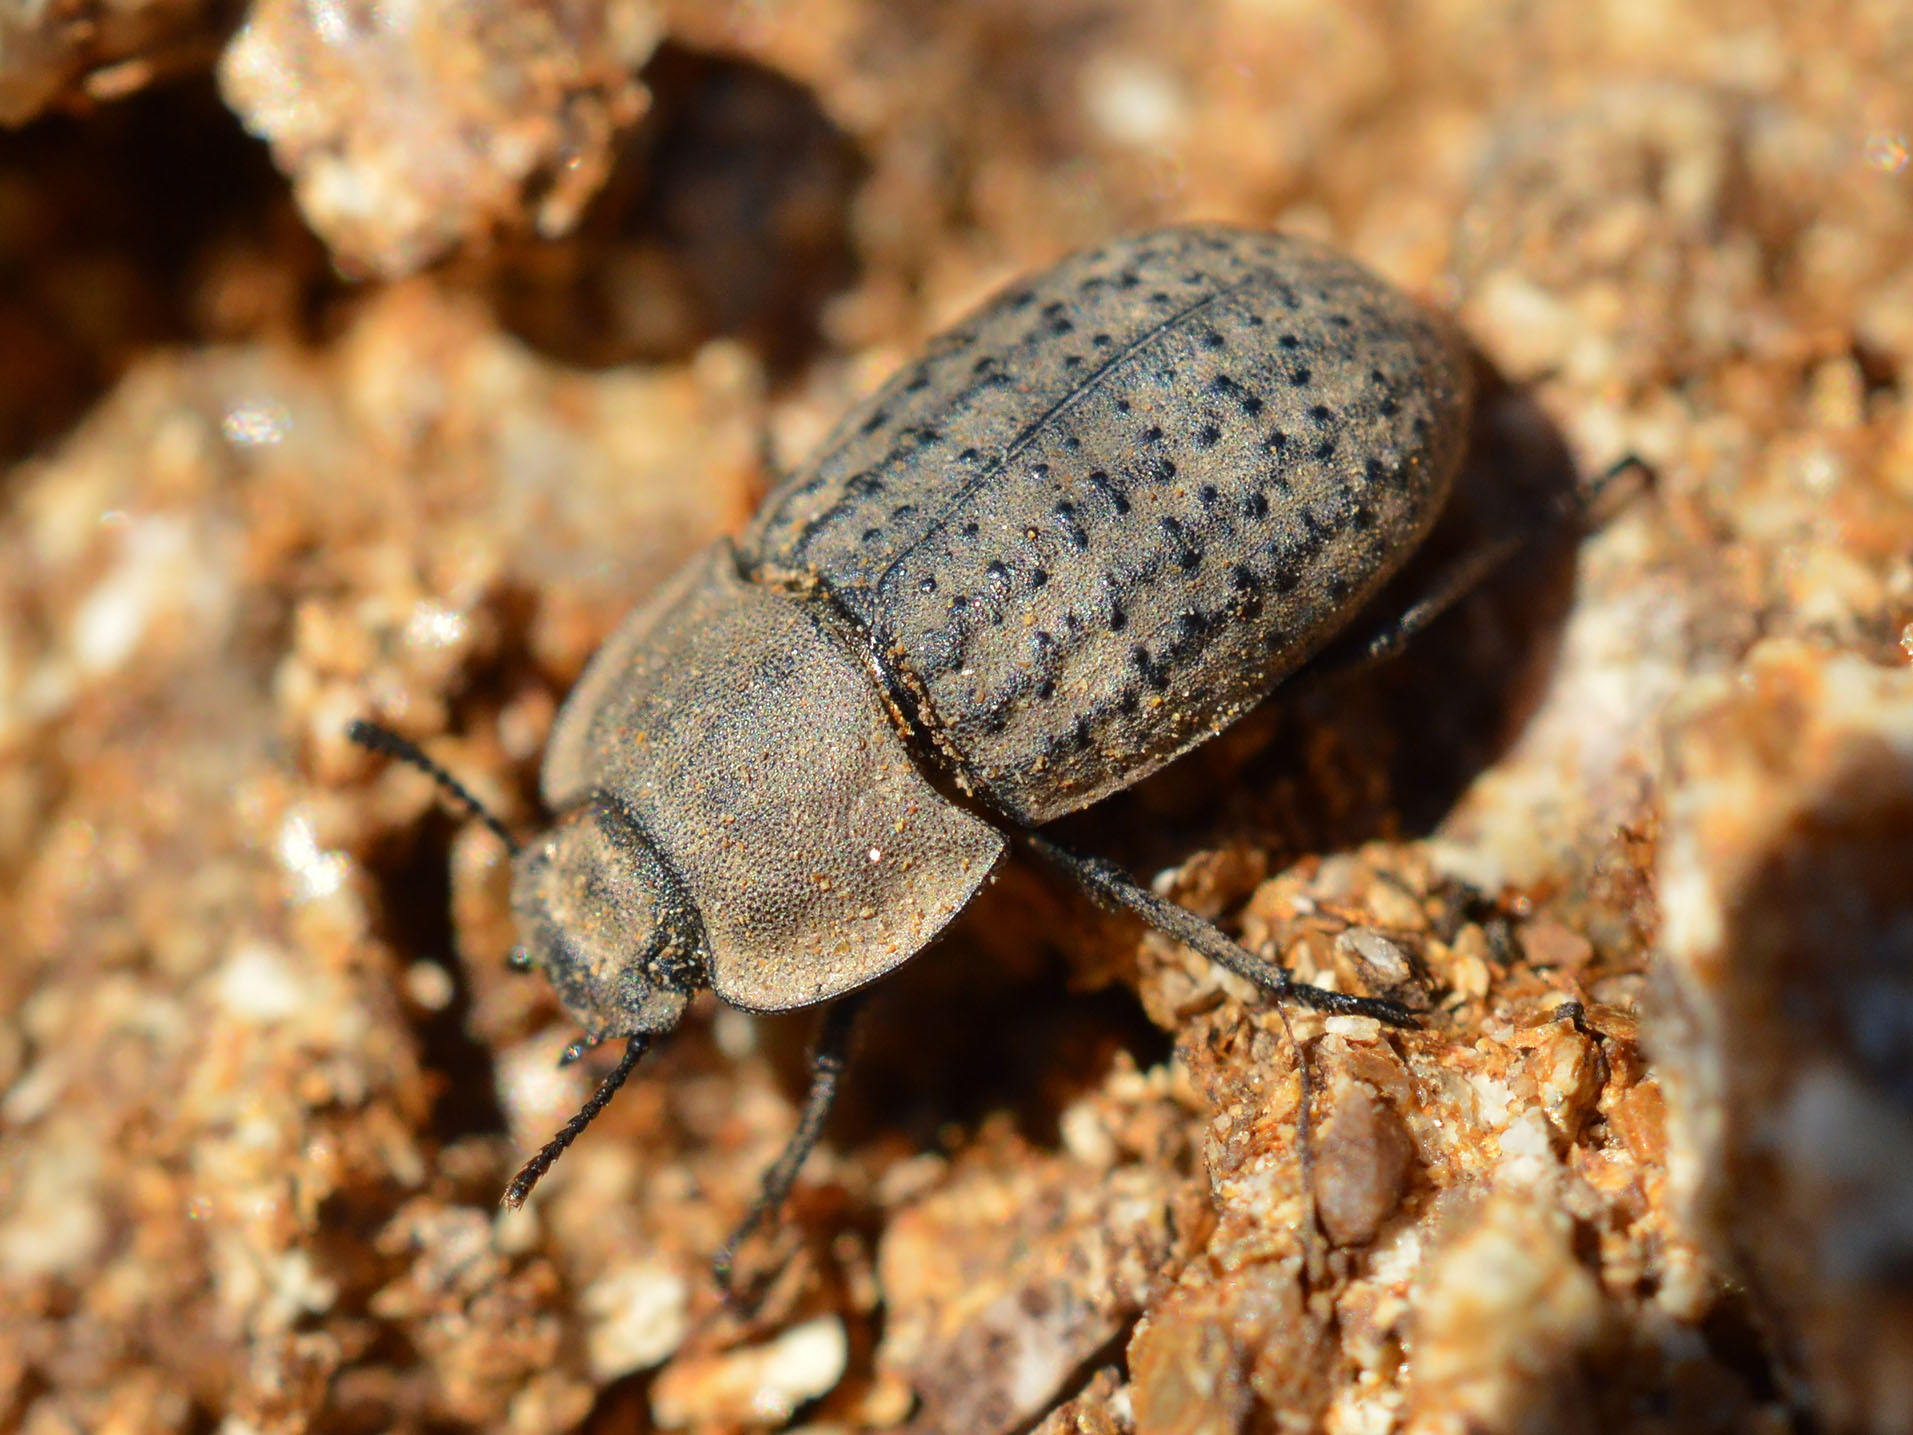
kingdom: Animalia
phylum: Arthropoda
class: Insecta
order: Coleoptera
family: Tenebrionidae
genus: Opatrum
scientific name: Opatrum sabulosum
